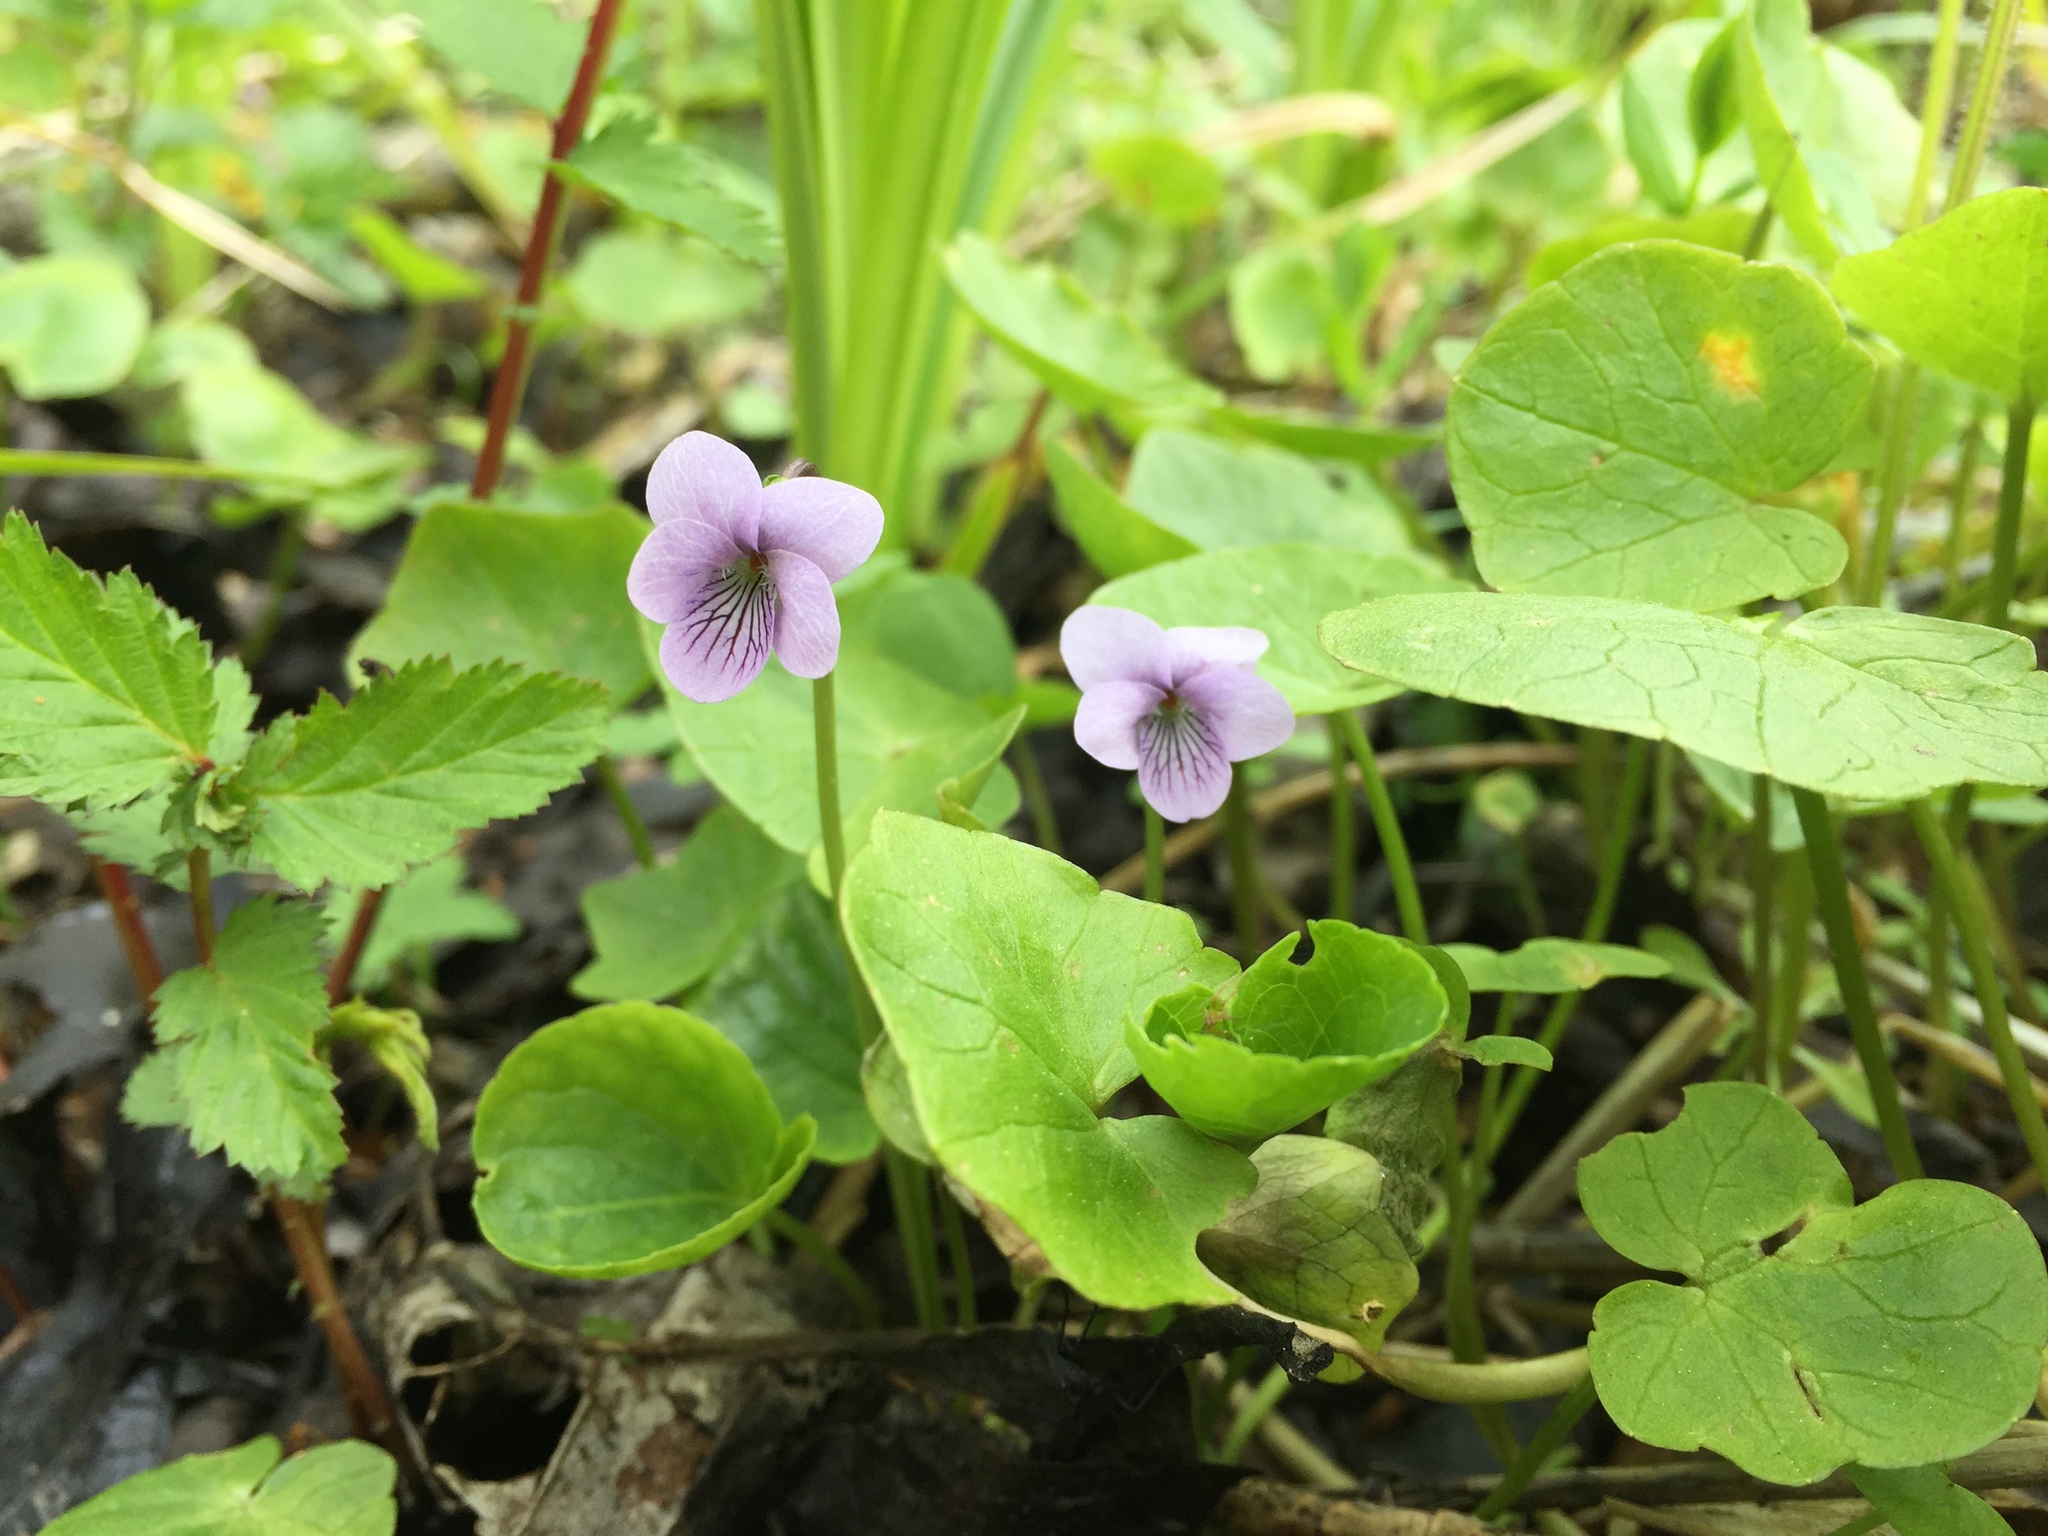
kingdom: Plantae
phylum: Tracheophyta
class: Magnoliopsida
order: Malpighiales
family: Violaceae
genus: Viola
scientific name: Viola palustris
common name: Marsh violet
